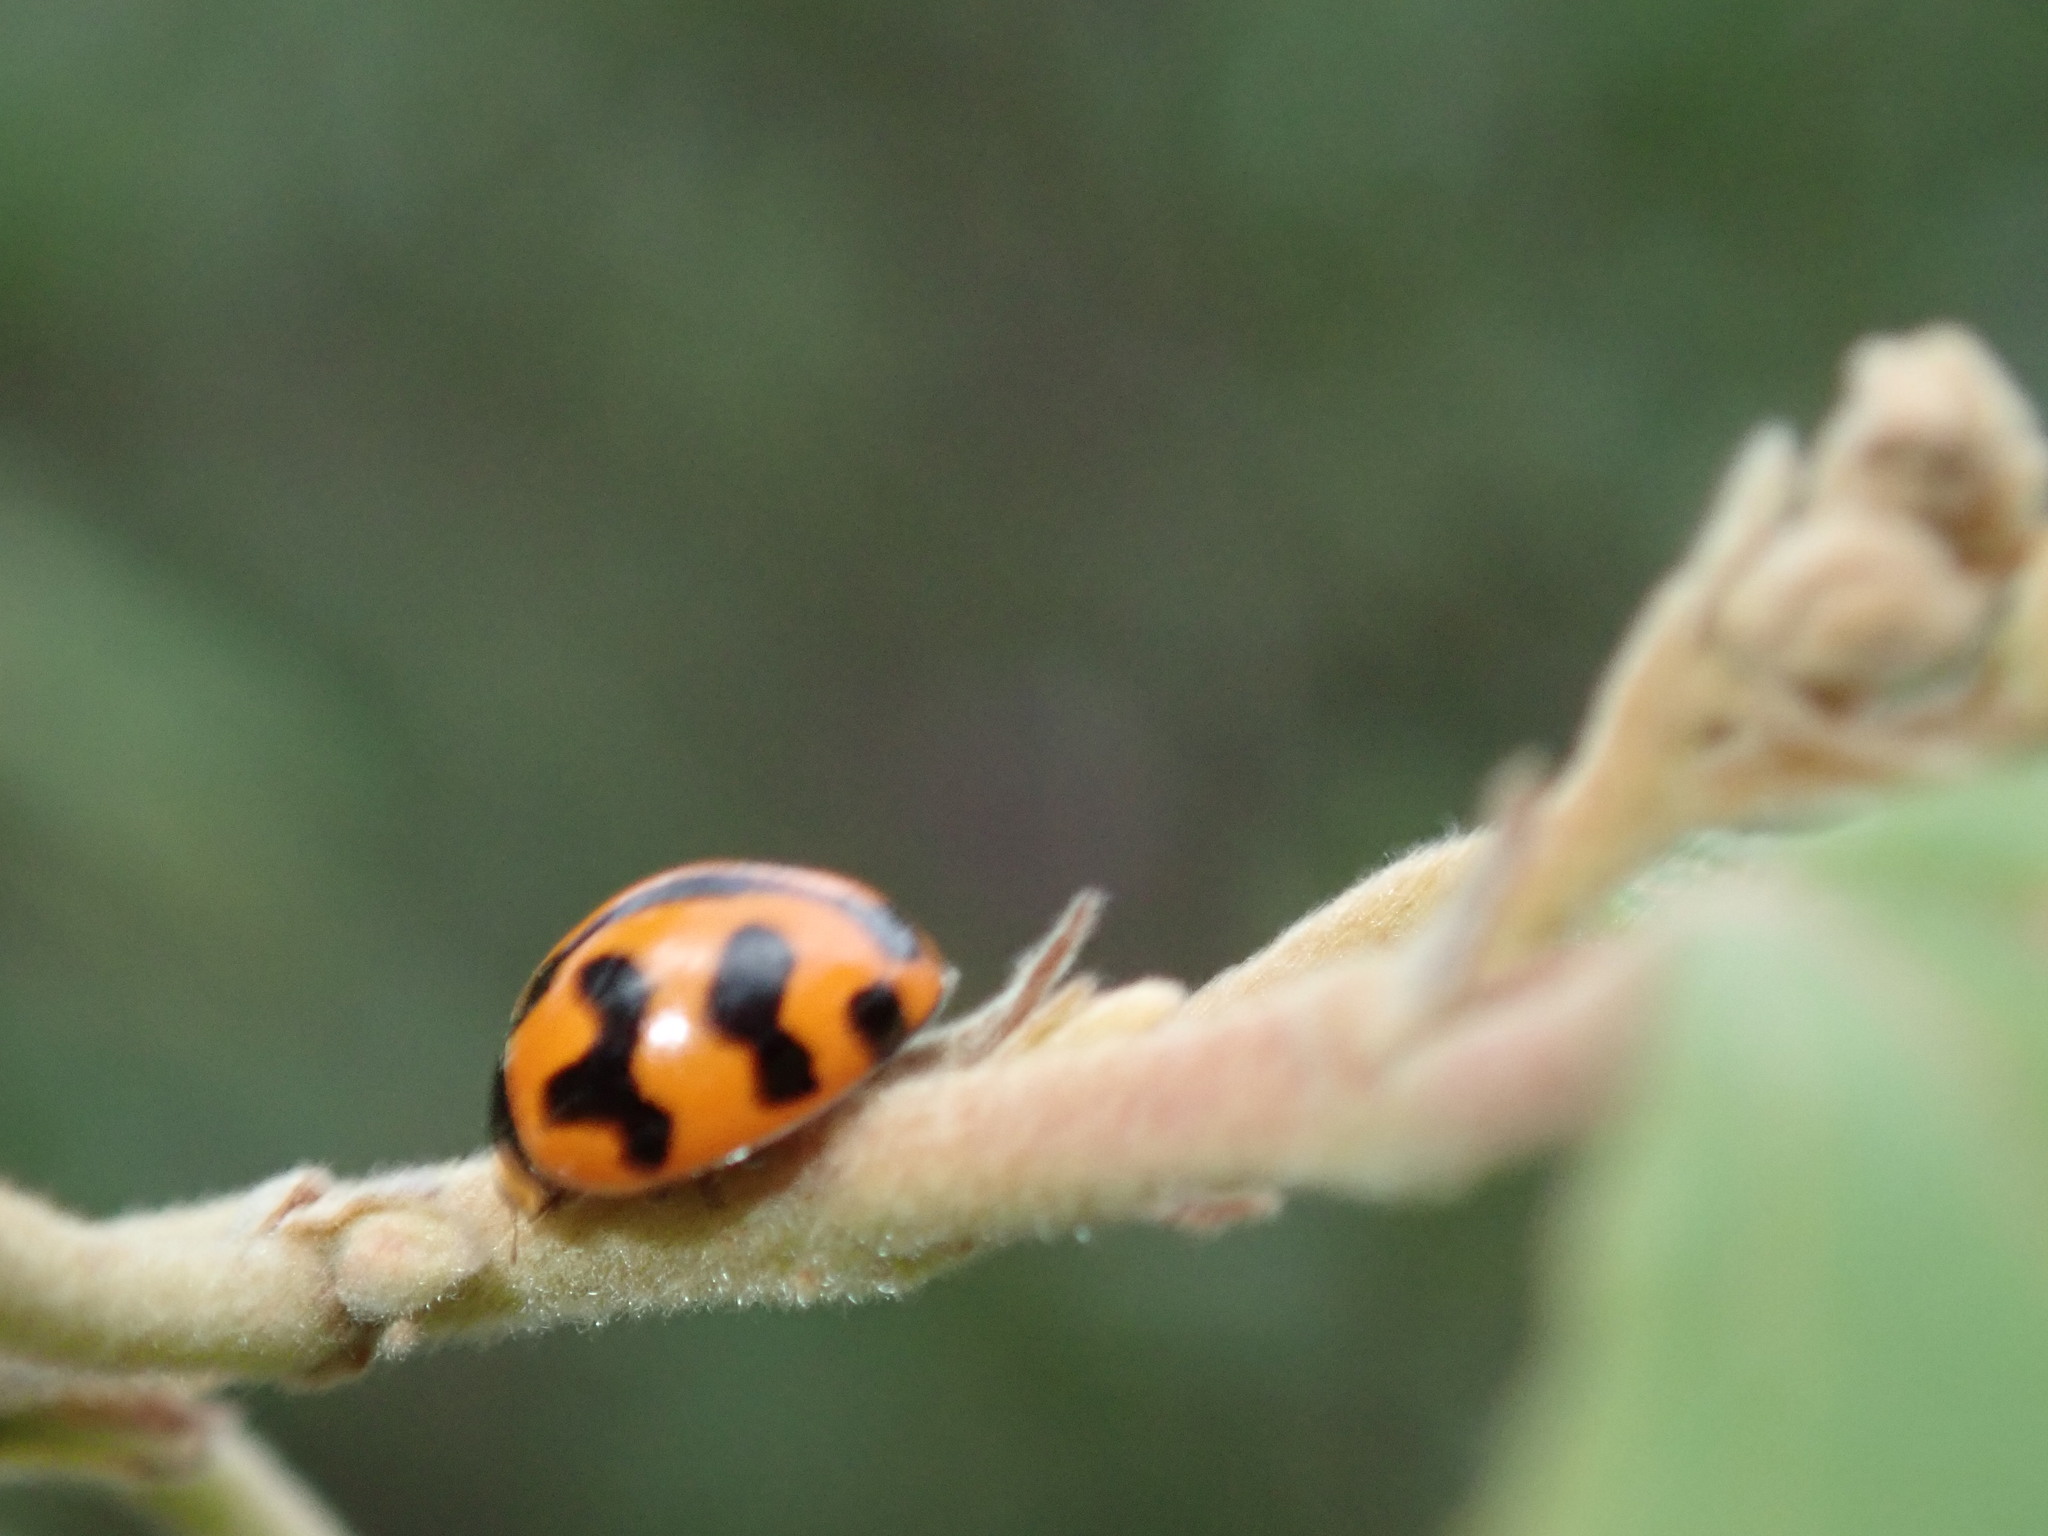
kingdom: Animalia
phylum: Arthropoda
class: Insecta
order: Coleoptera
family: Coccinellidae
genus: Coccinella
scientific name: Coccinella transversalis
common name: Transverse lady beetle
